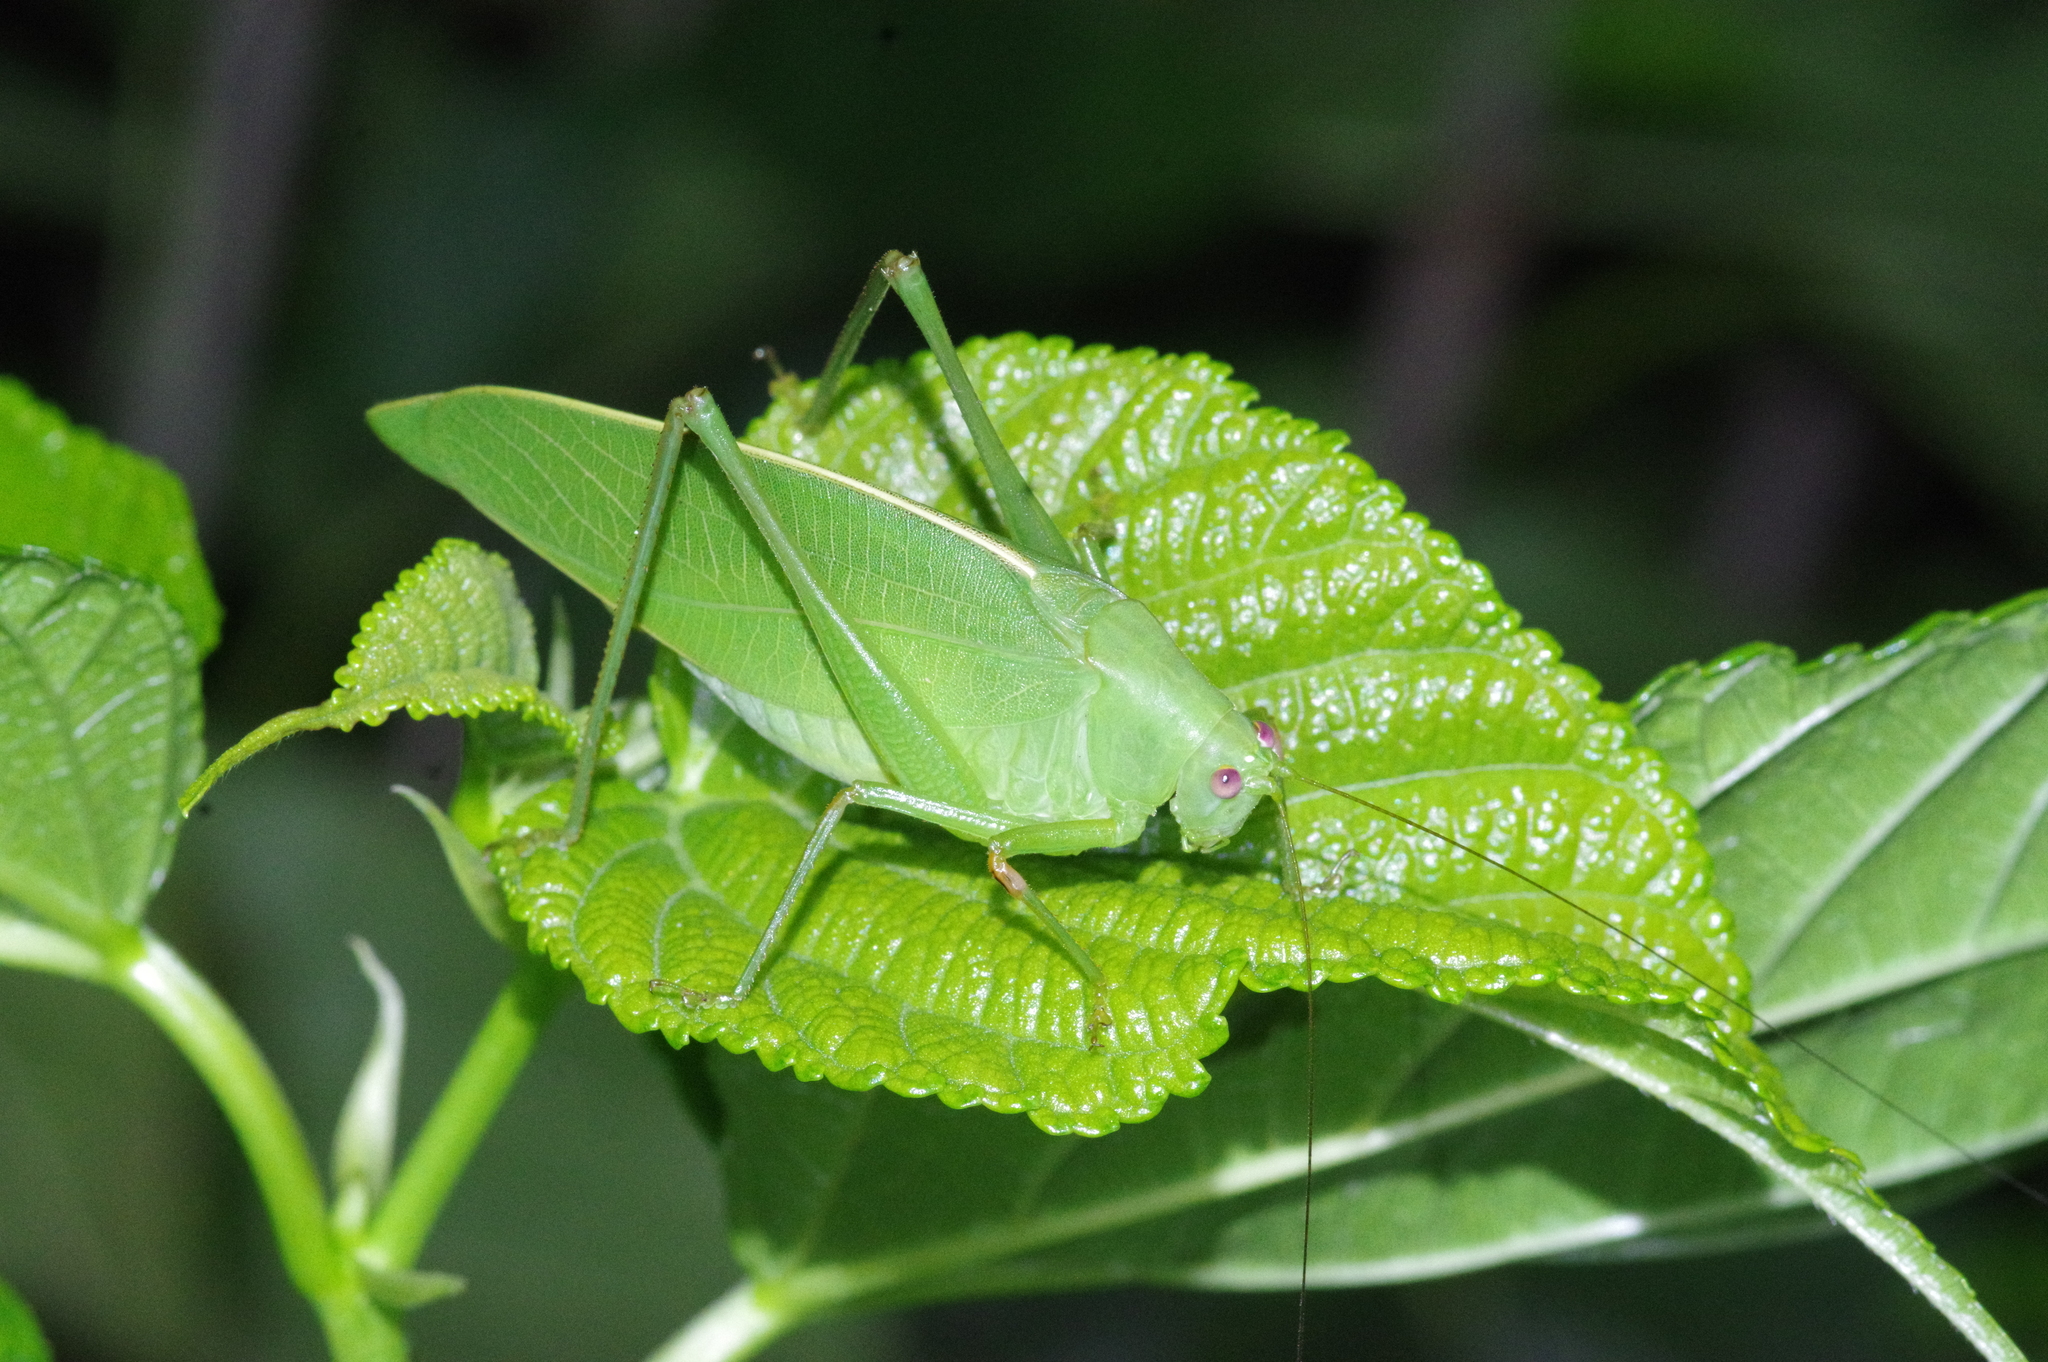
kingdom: Animalia
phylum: Arthropoda
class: Insecta
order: Orthoptera
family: Tettigoniidae
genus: Phaulula
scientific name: Phaulula daitoensis
